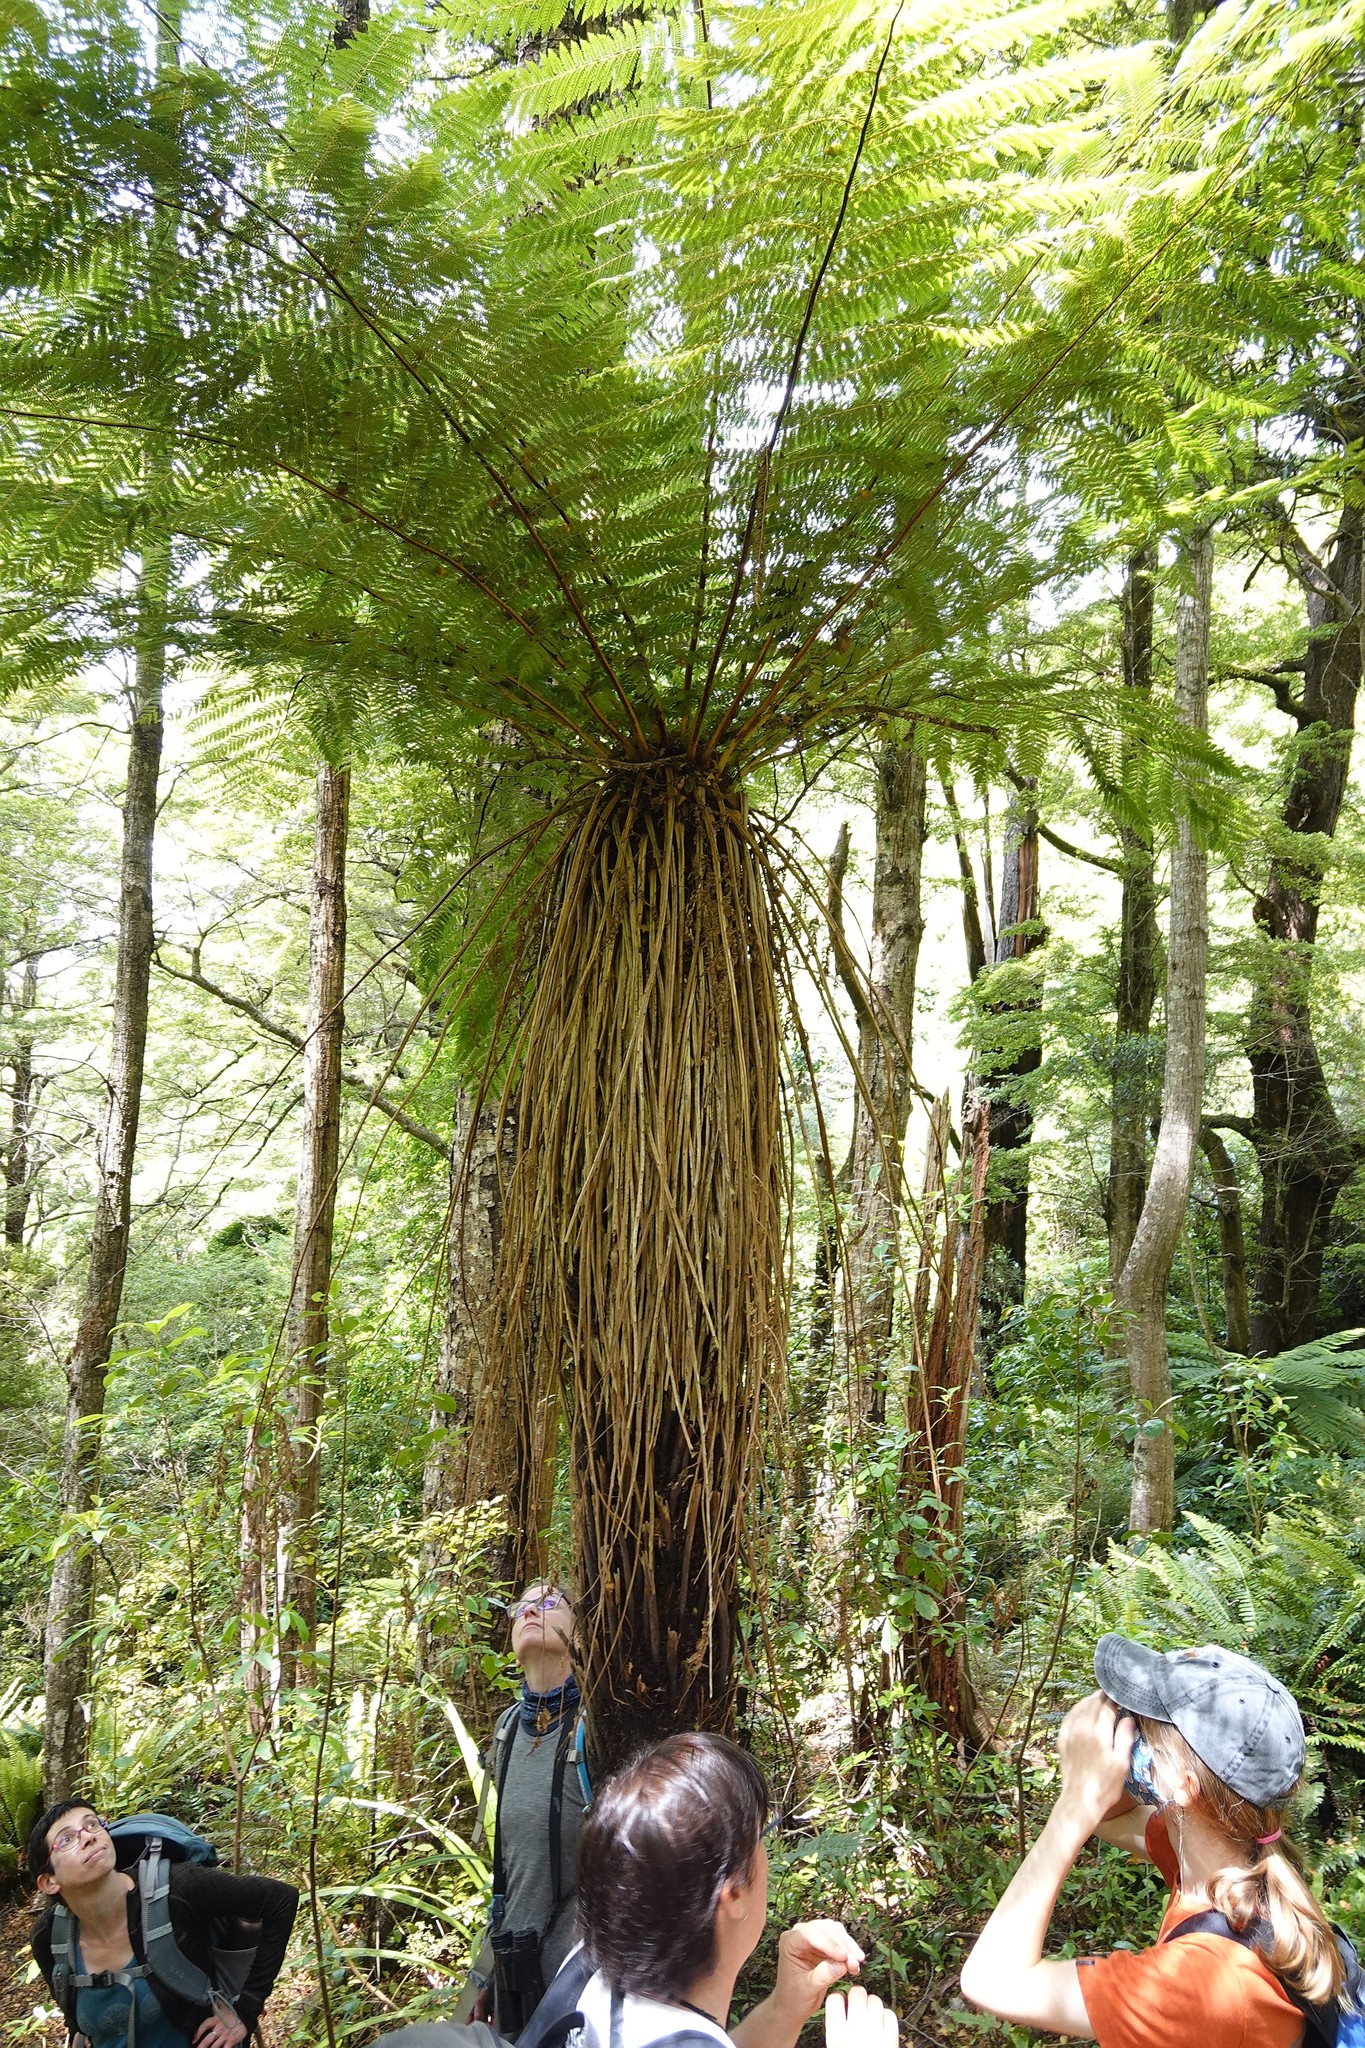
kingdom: Plantae
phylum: Tracheophyta
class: Polypodiopsida
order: Cyatheales
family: Cyatheaceae
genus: Alsophila
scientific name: Alsophila smithii
